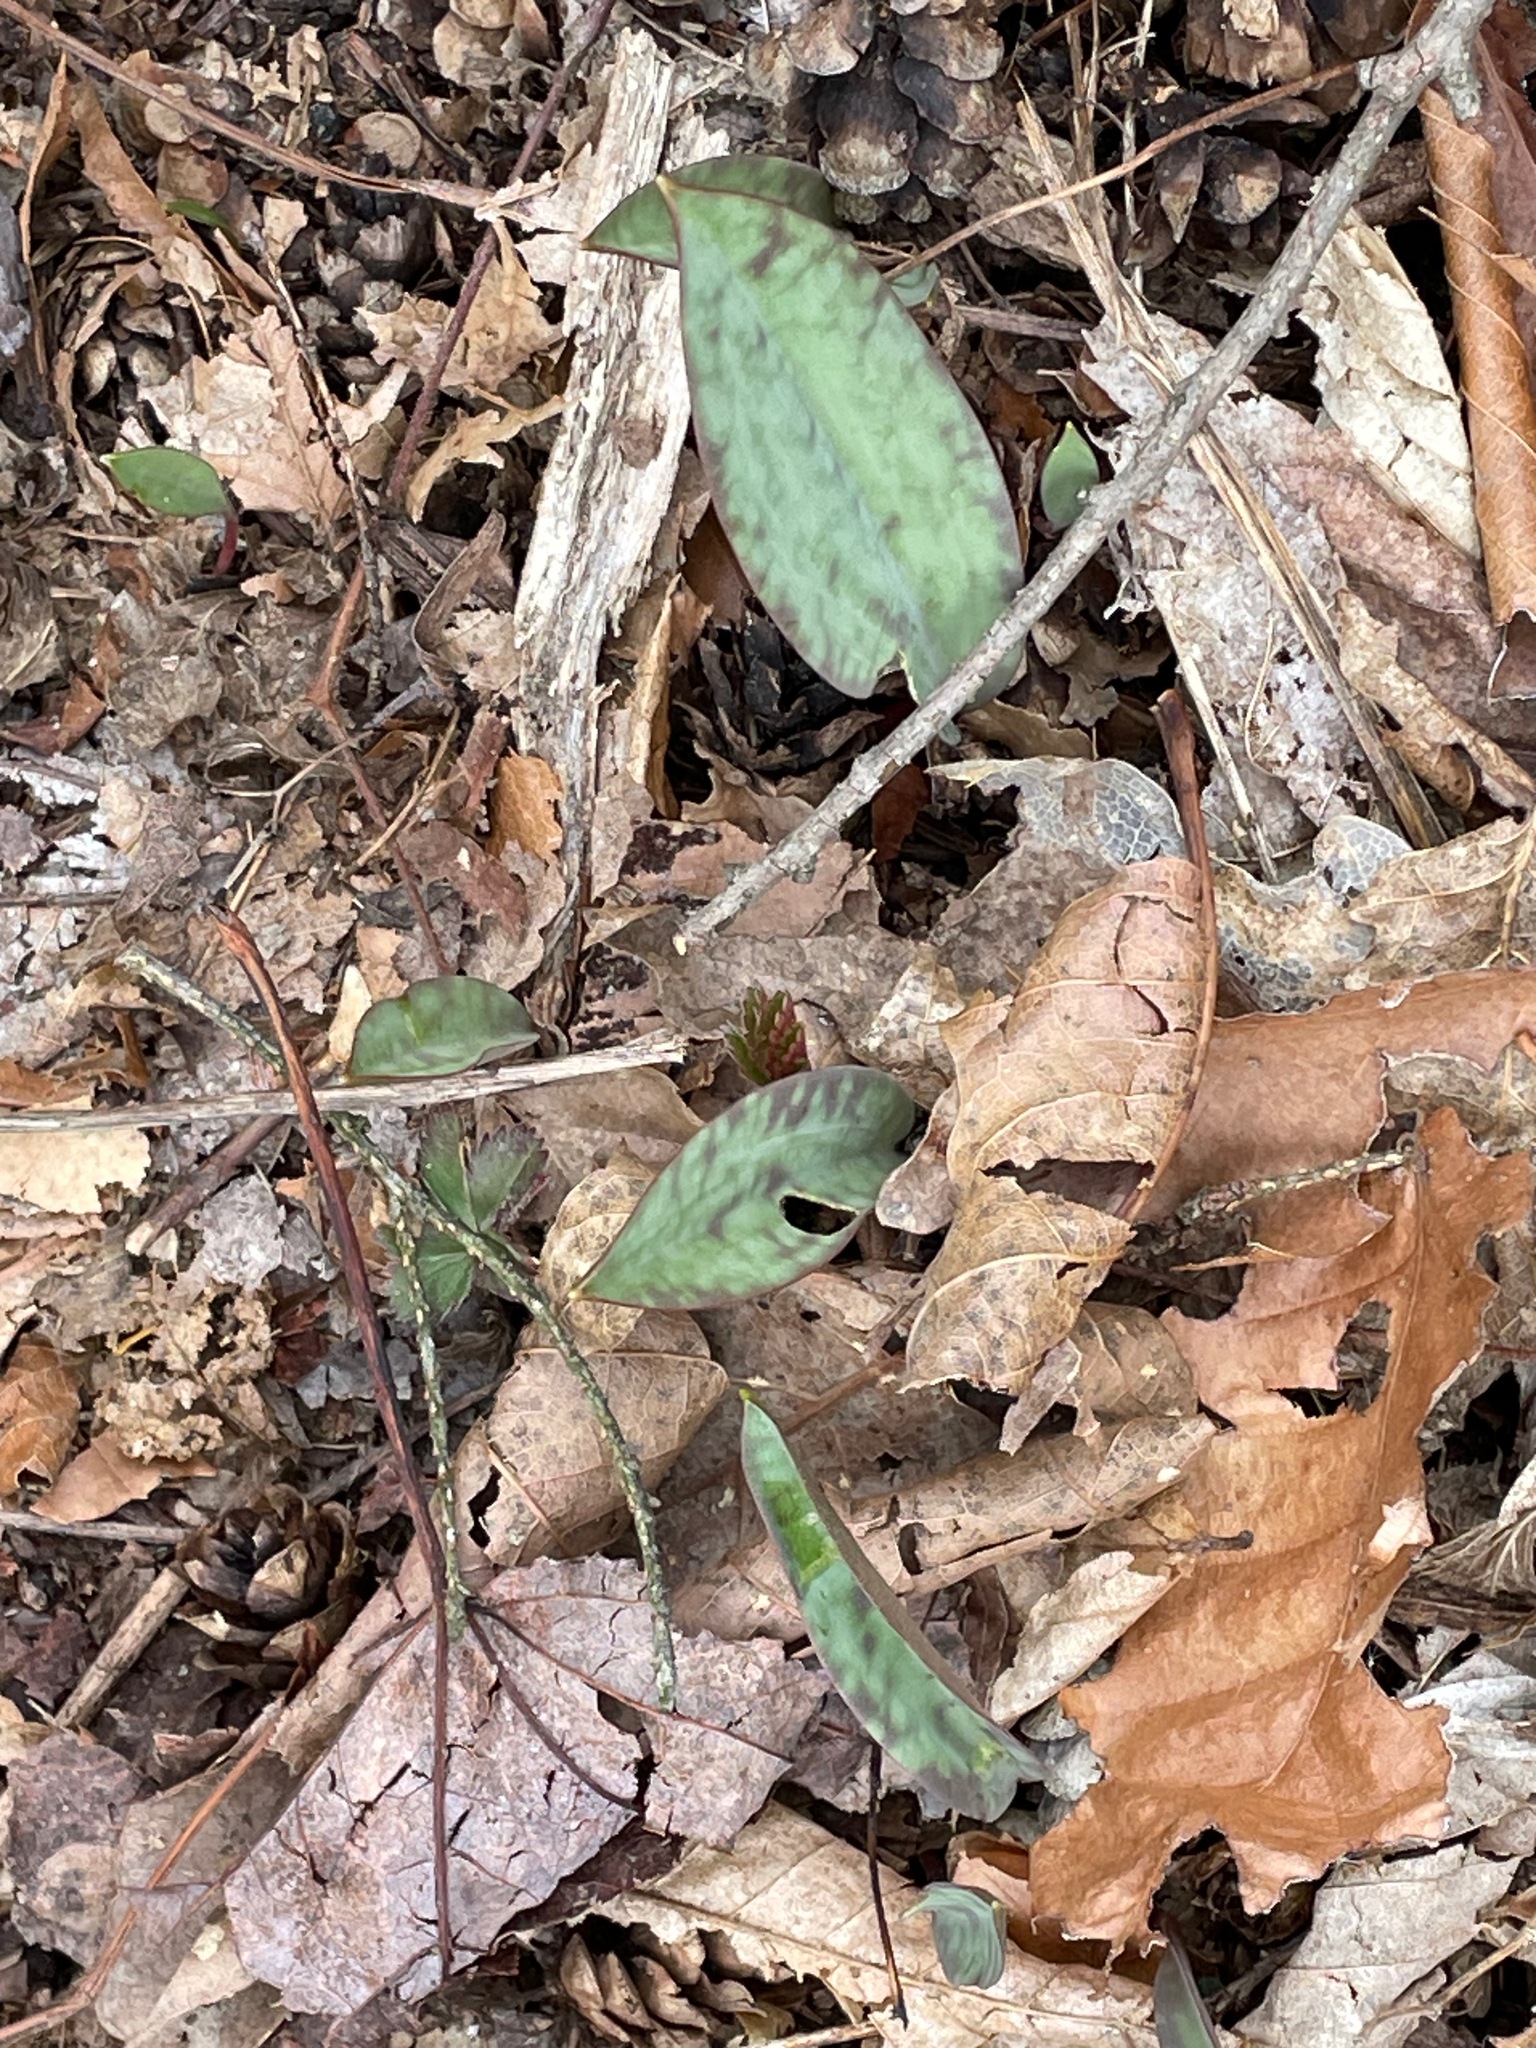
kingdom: Plantae
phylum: Tracheophyta
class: Liliopsida
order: Liliales
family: Liliaceae
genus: Erythronium
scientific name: Erythronium americanum
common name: Yellow adder's-tongue
